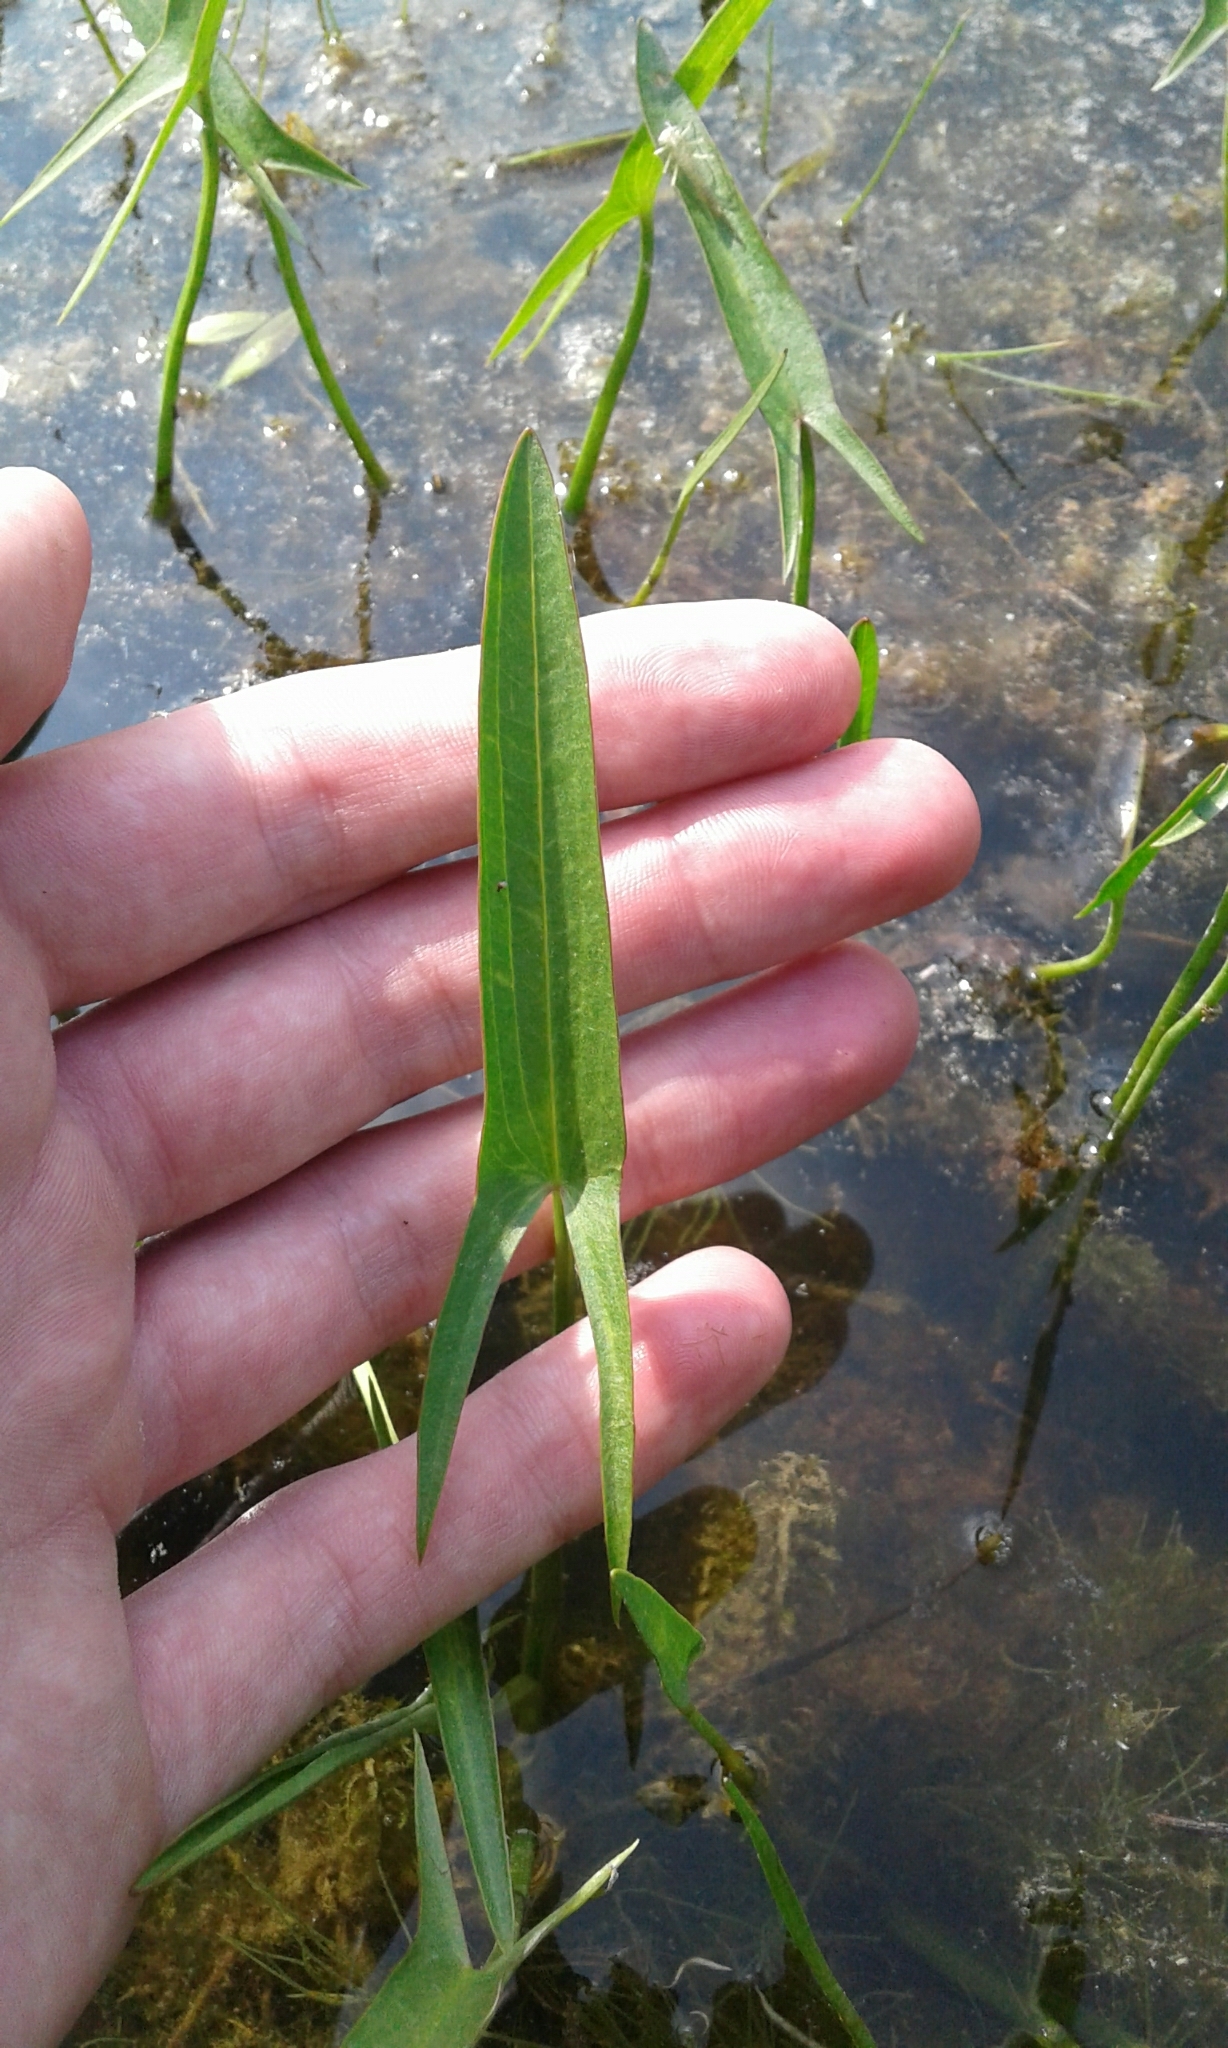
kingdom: Plantae
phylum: Tracheophyta
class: Liliopsida
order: Alismatales
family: Alismataceae
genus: Sagittaria
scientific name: Sagittaria latifolia
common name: Duck-potato
